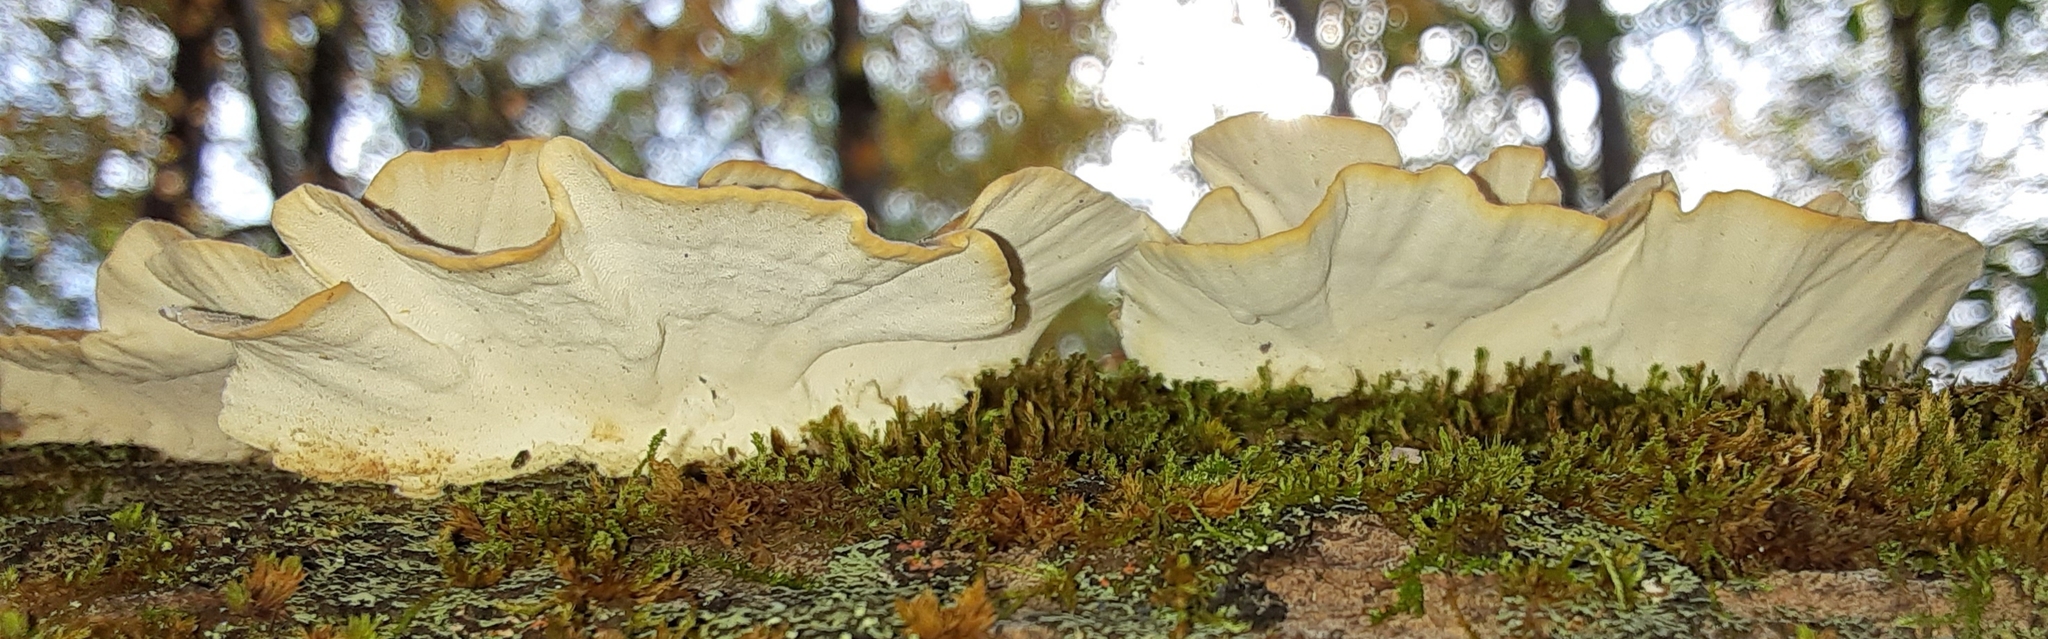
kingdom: Fungi
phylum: Basidiomycota
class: Agaricomycetes
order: Polyporales
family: Polyporaceae
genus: Trametes
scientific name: Trametes versicolor
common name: Turkeytail
